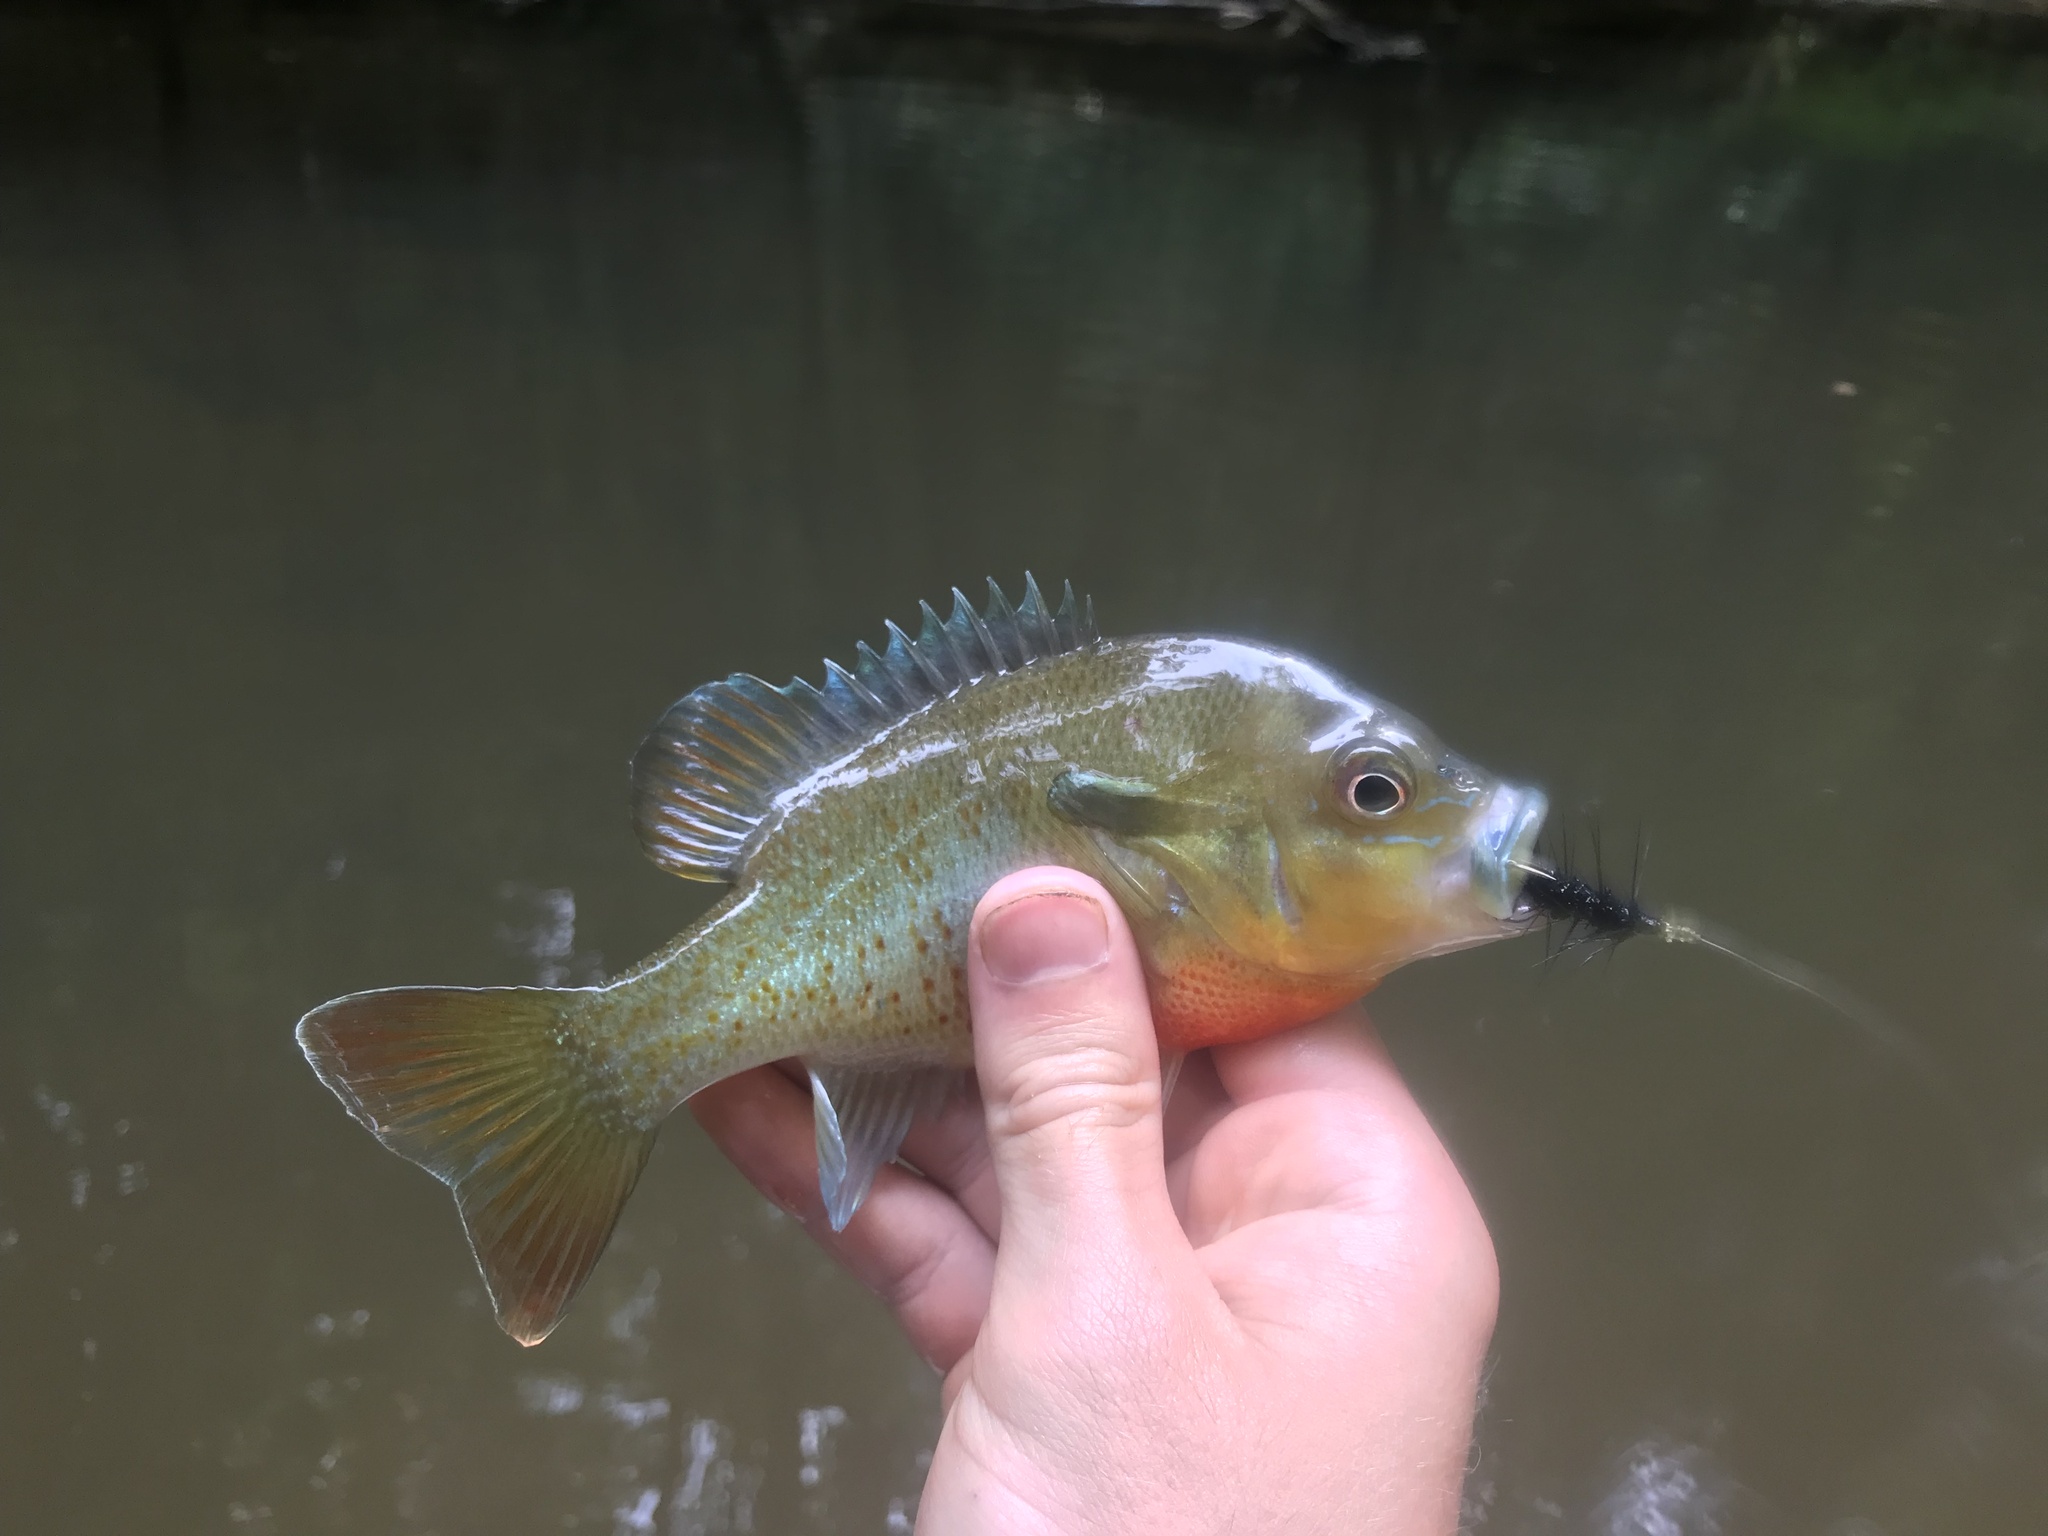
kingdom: Animalia
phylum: Chordata
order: Perciformes
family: Centrarchidae
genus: Lepomis
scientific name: Lepomis auritus
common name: Redbreast sunfish
